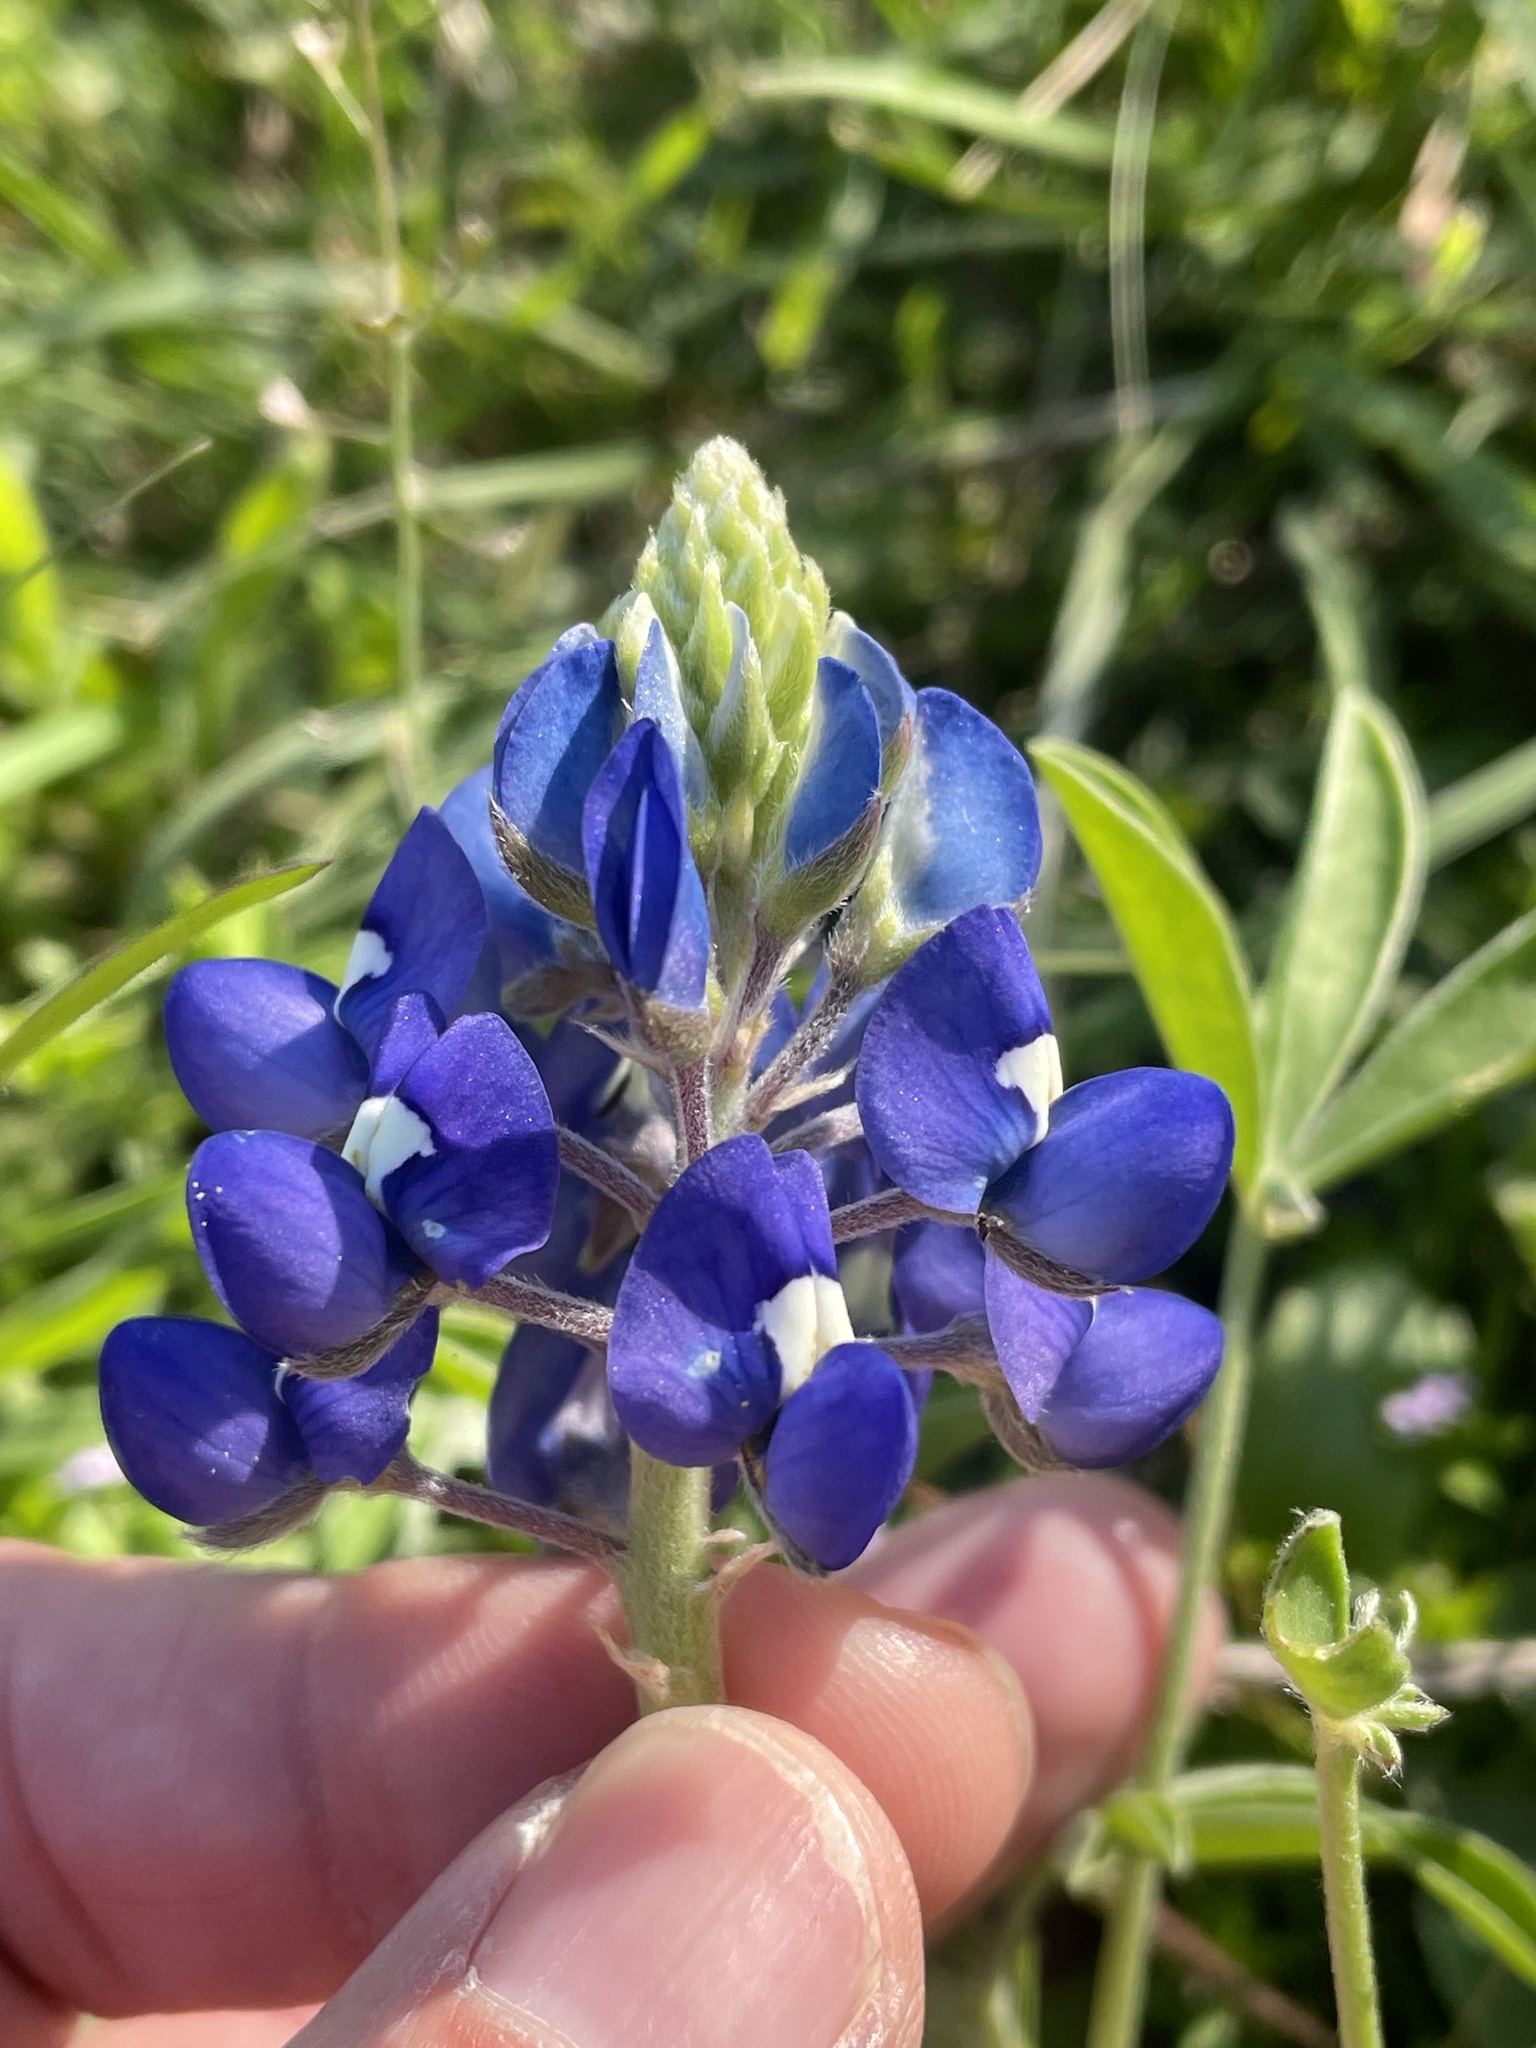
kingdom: Plantae
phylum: Tracheophyta
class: Magnoliopsida
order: Fabales
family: Fabaceae
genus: Lupinus
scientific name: Lupinus texensis
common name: Texas bluebonnet
